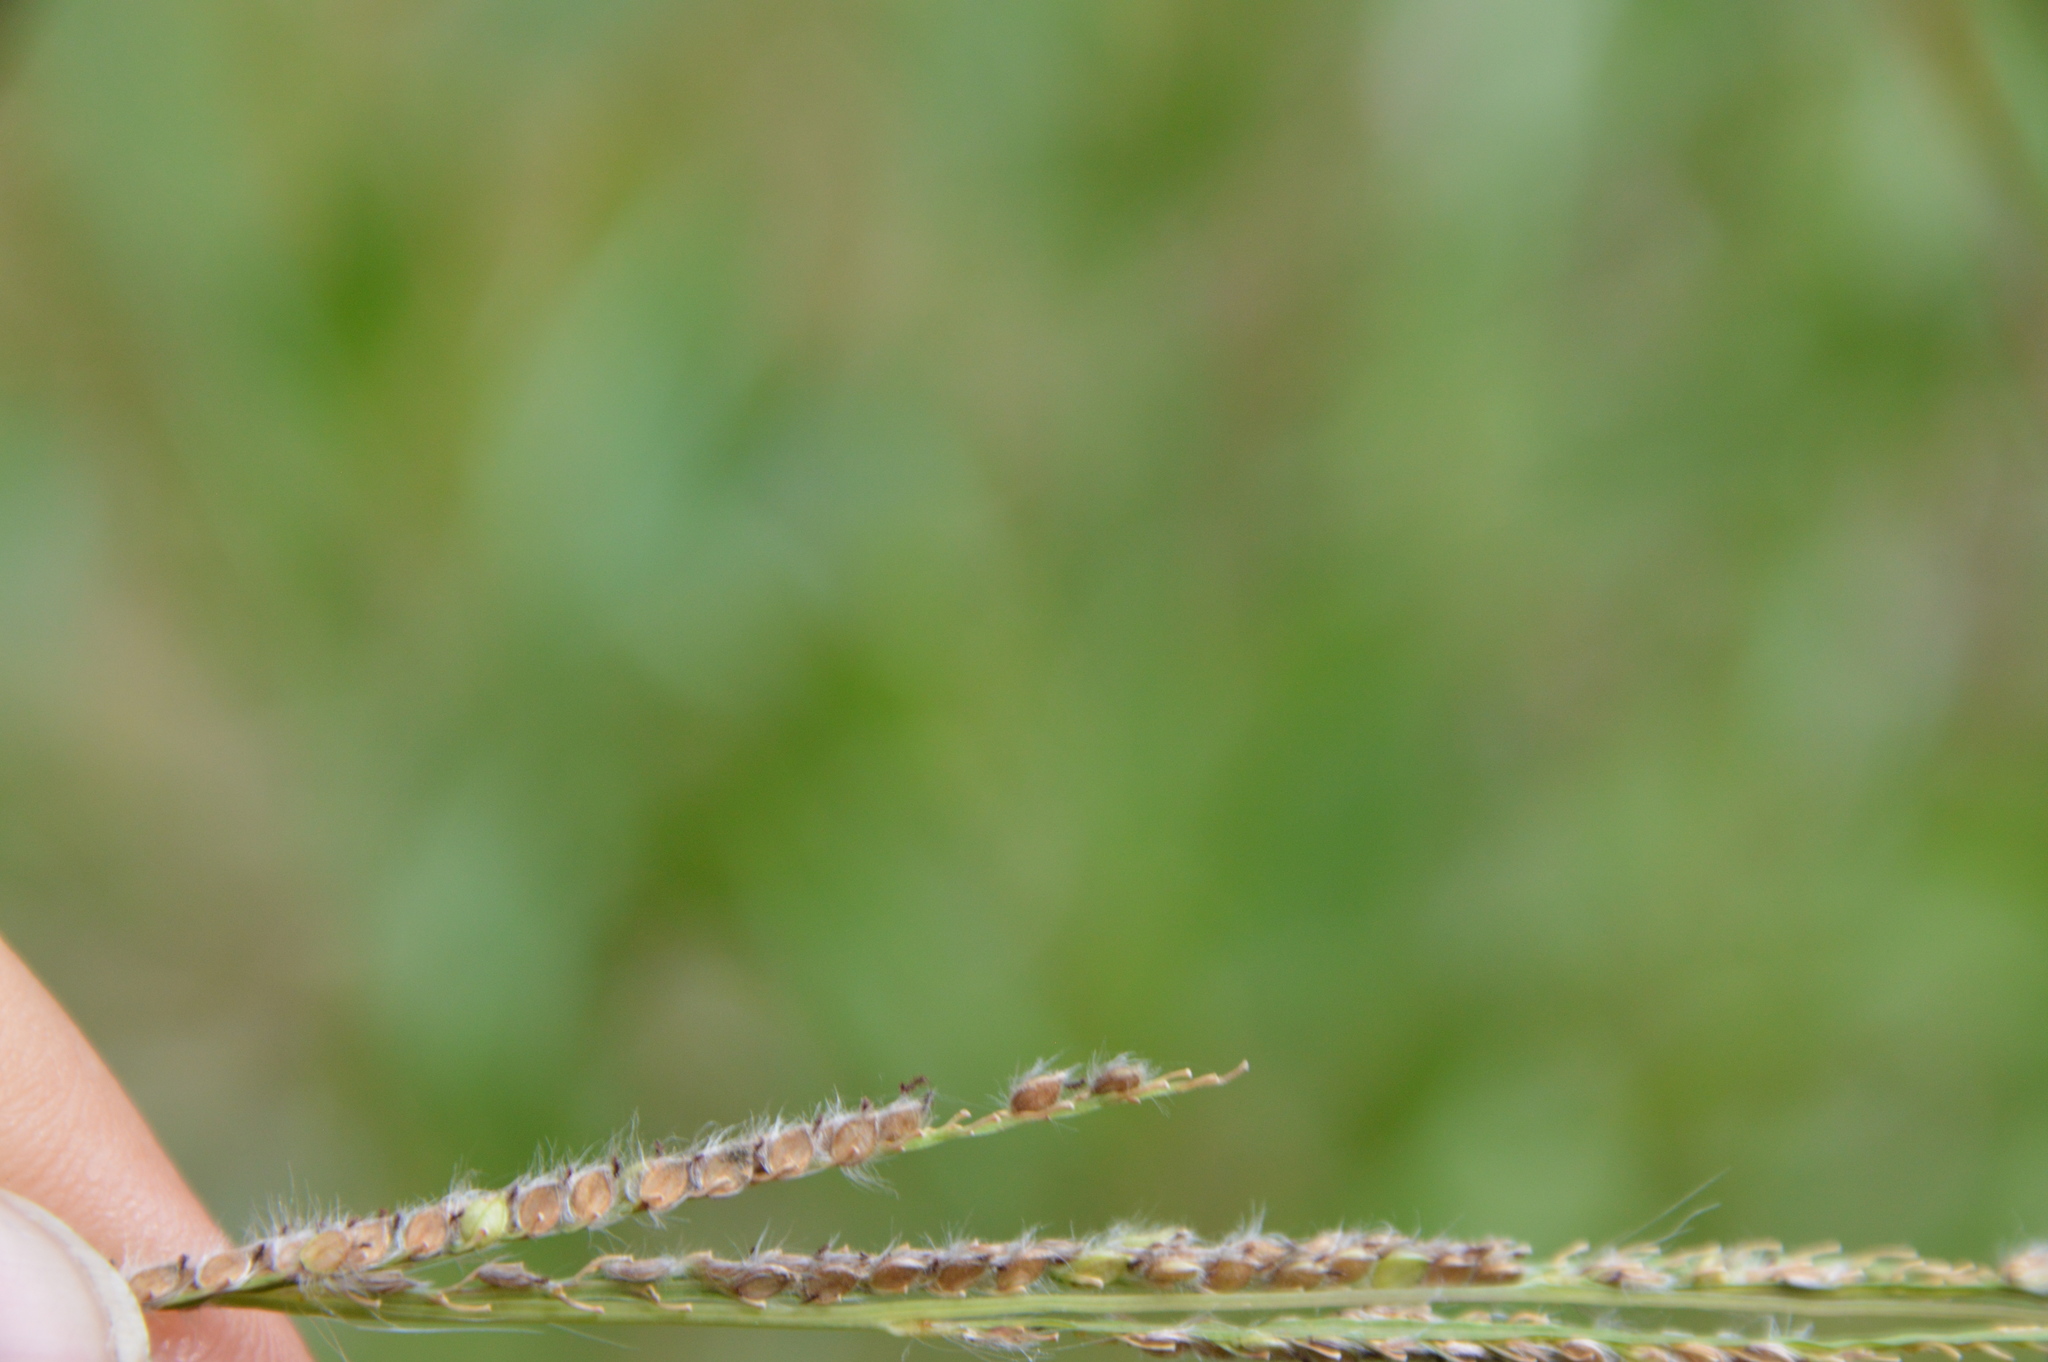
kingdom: Plantae
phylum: Tracheophyta
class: Liliopsida
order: Poales
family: Poaceae
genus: Paspalum
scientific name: Paspalum urvillei
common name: Vasey's grass
